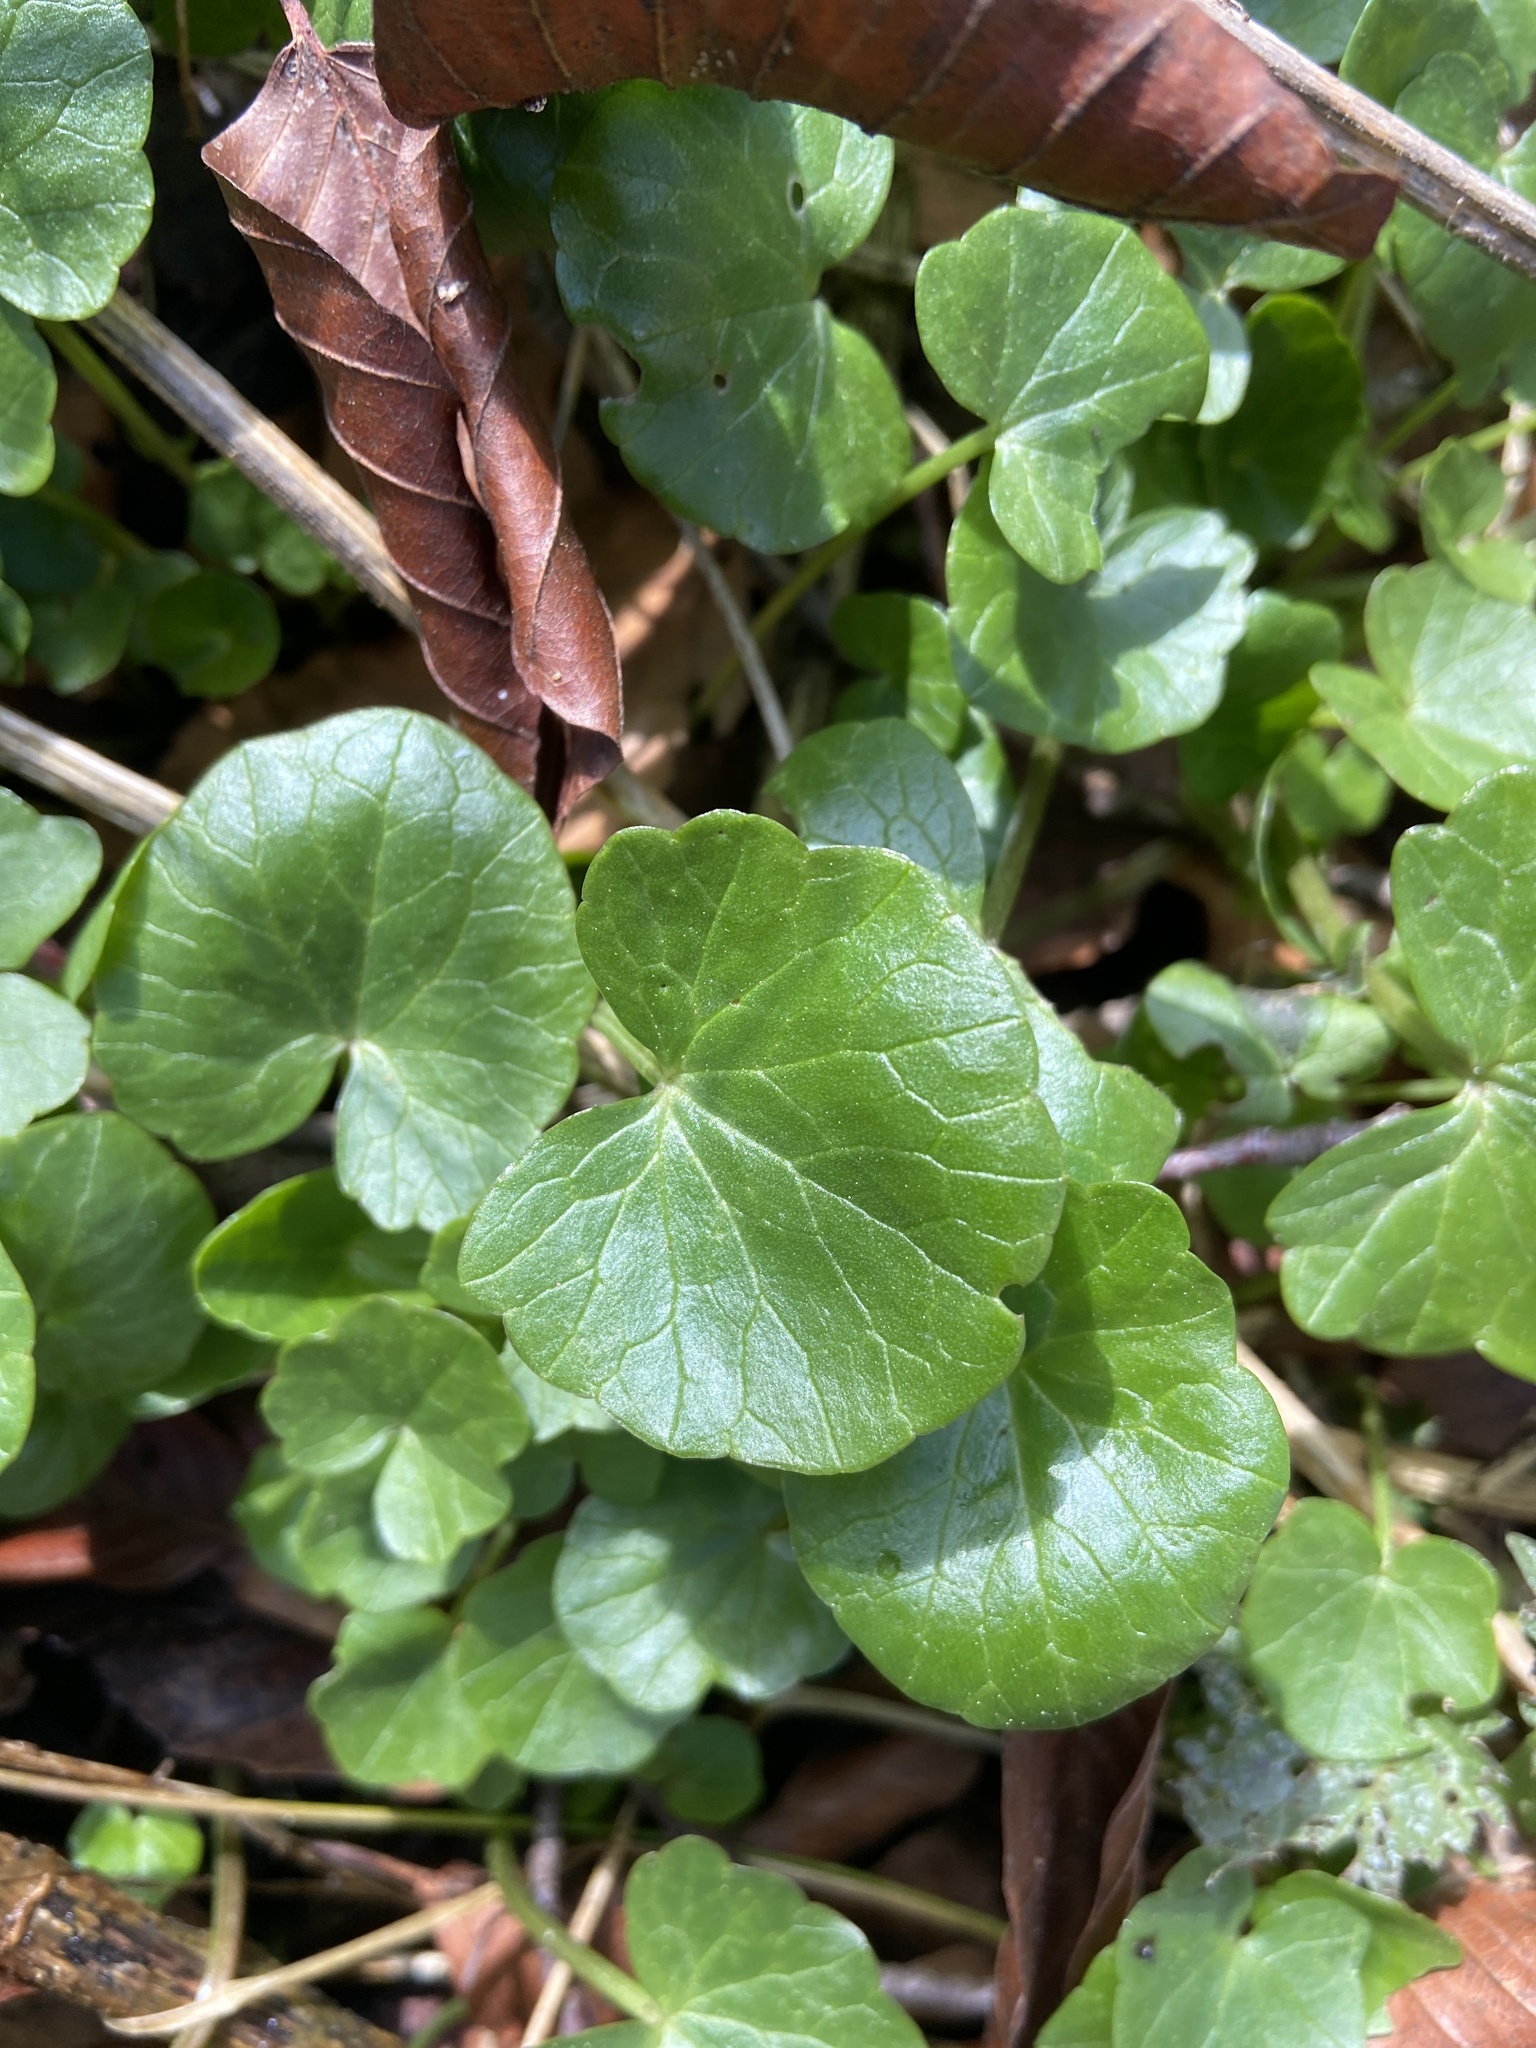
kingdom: Plantae
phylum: Tracheophyta
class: Magnoliopsida
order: Ranunculales
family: Ranunculaceae
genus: Ficaria
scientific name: Ficaria verna
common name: Lesser celandine
